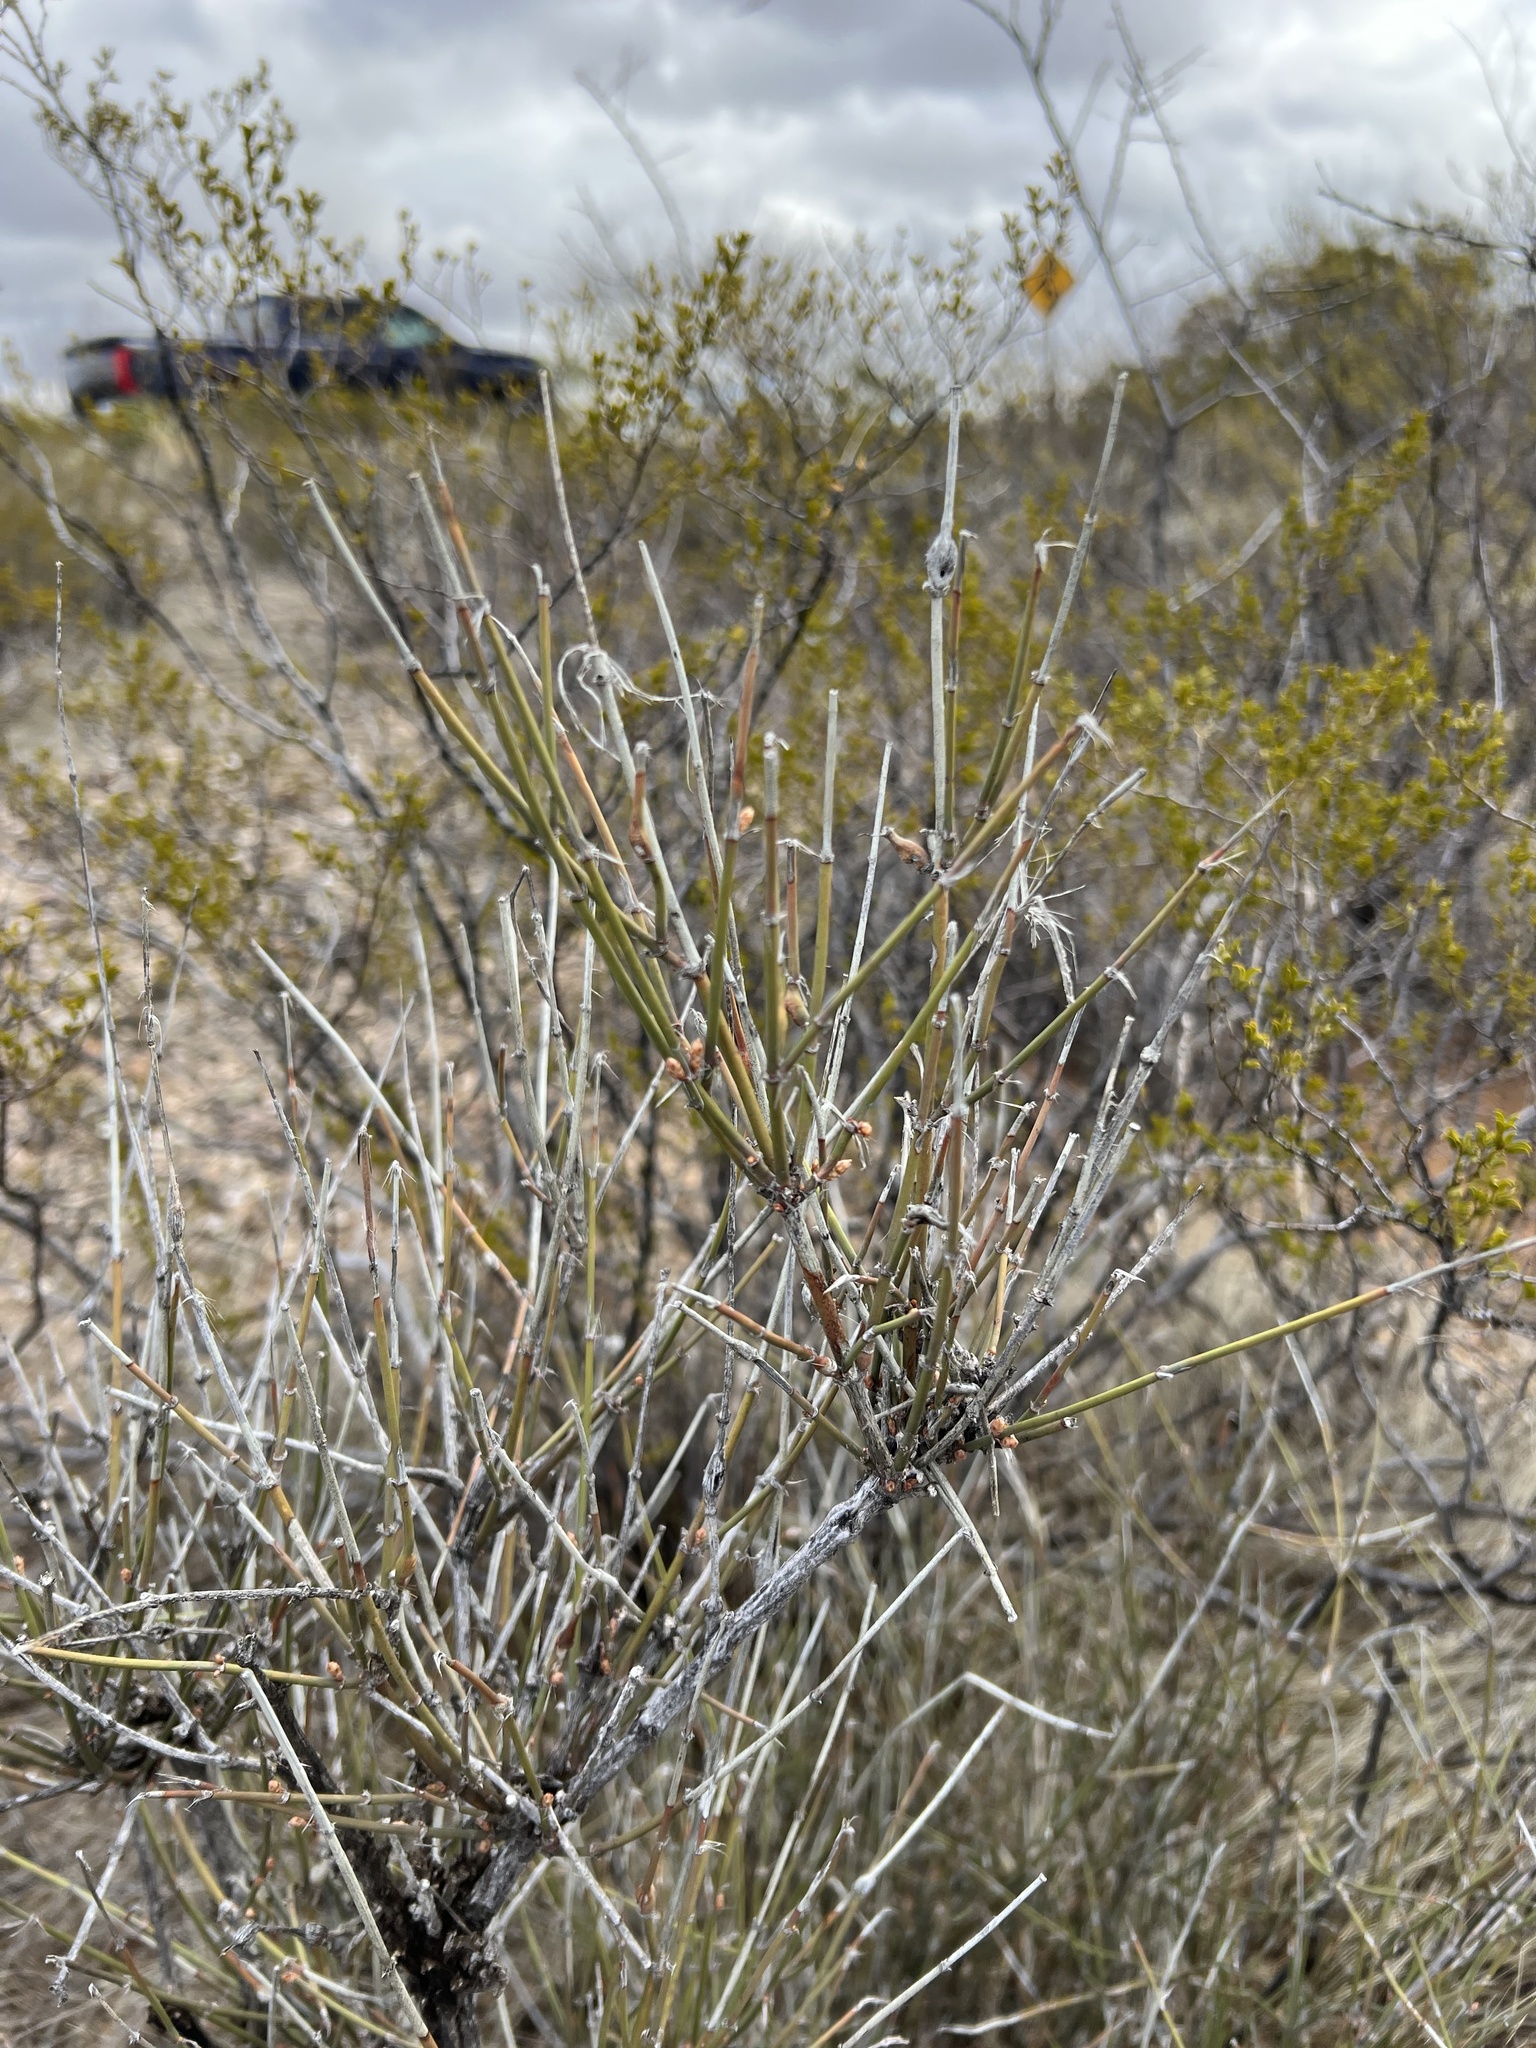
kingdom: Plantae
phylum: Tracheophyta
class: Gnetopsida
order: Ephedrales
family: Ephedraceae
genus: Ephedra
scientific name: Ephedra trifurca
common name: Mexican-tea
